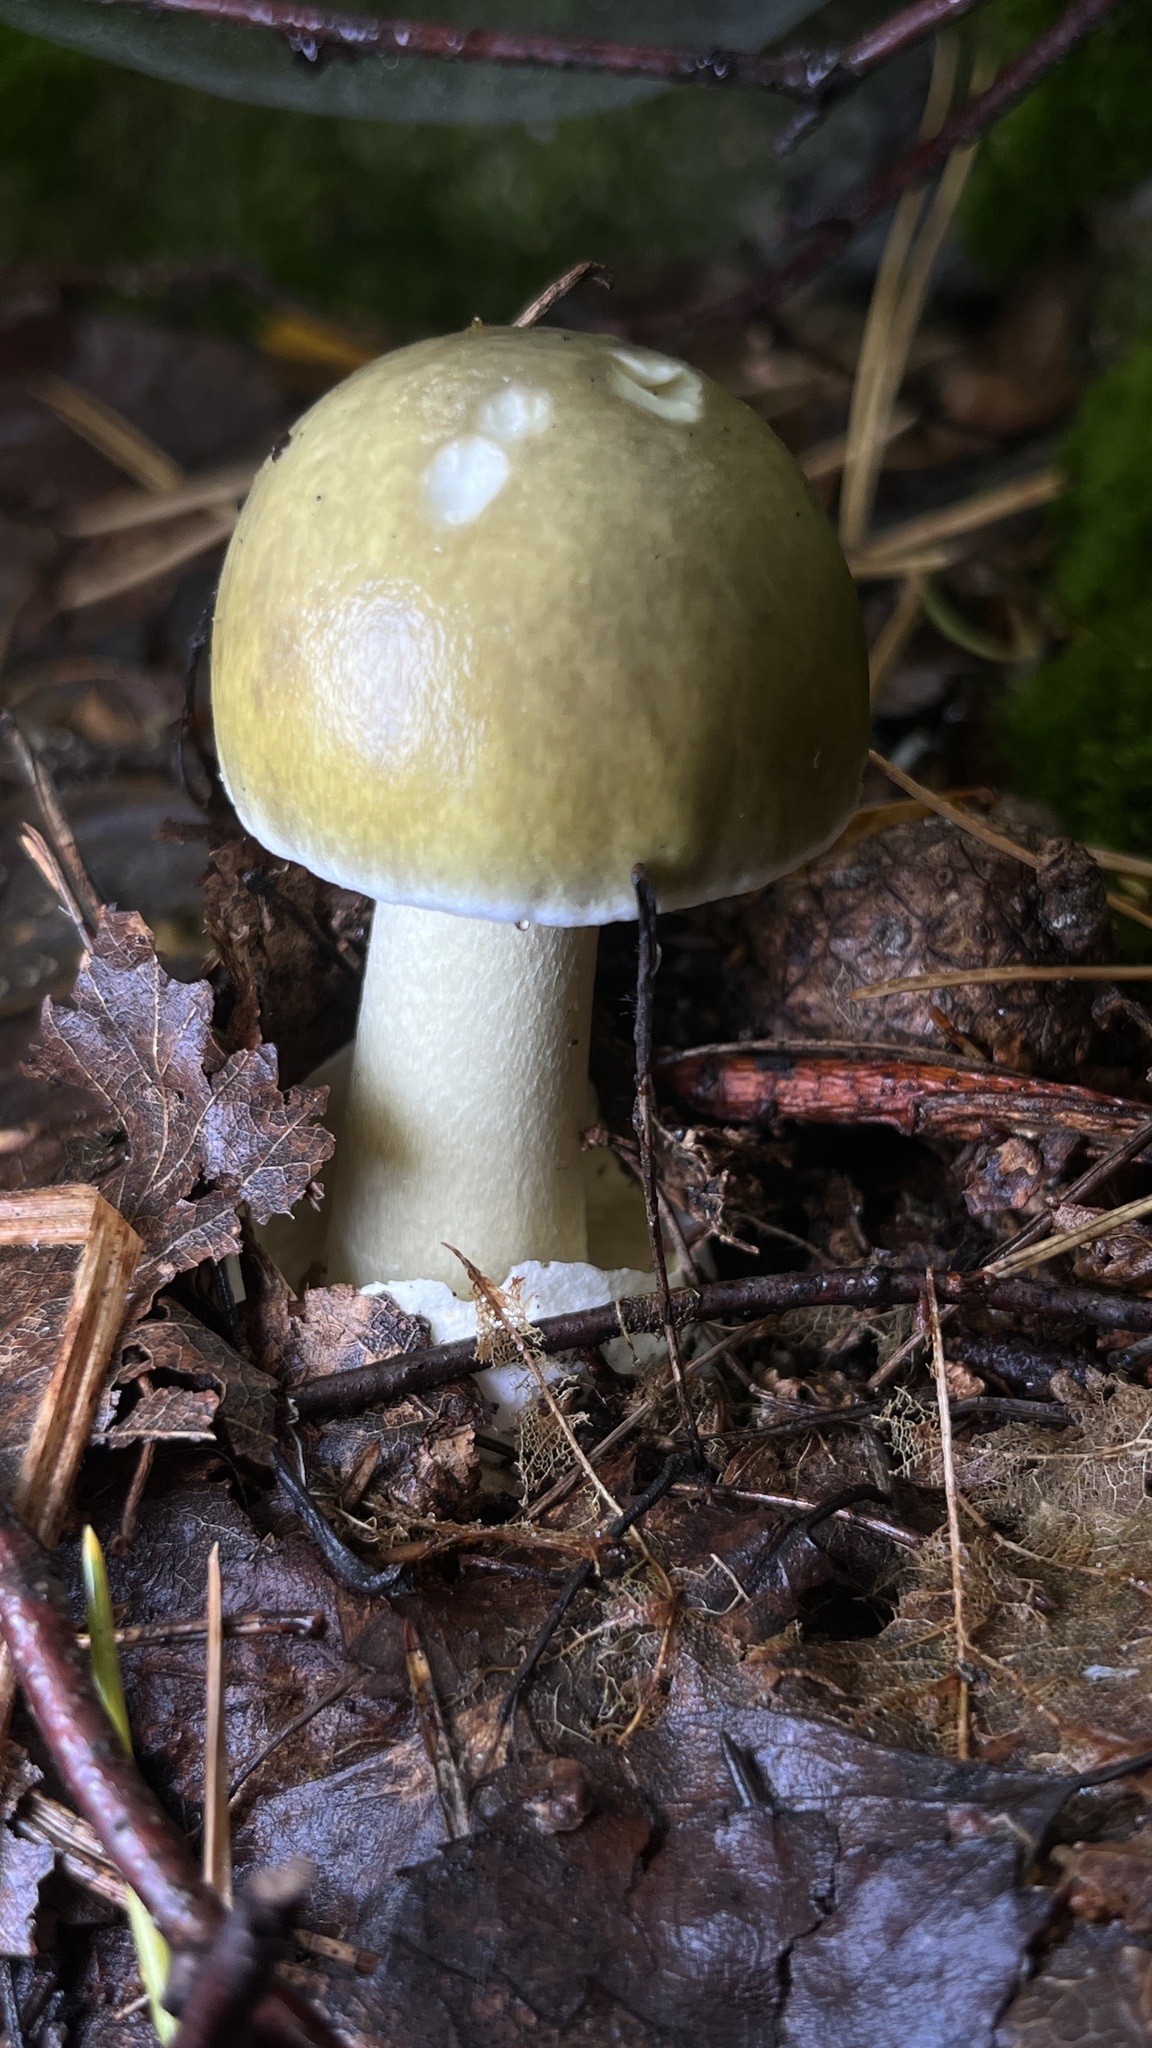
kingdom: Fungi
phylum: Basidiomycota
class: Agaricomycetes
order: Agaricales
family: Amanitaceae
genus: Amanita
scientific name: Amanita phalloides
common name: Death cap
